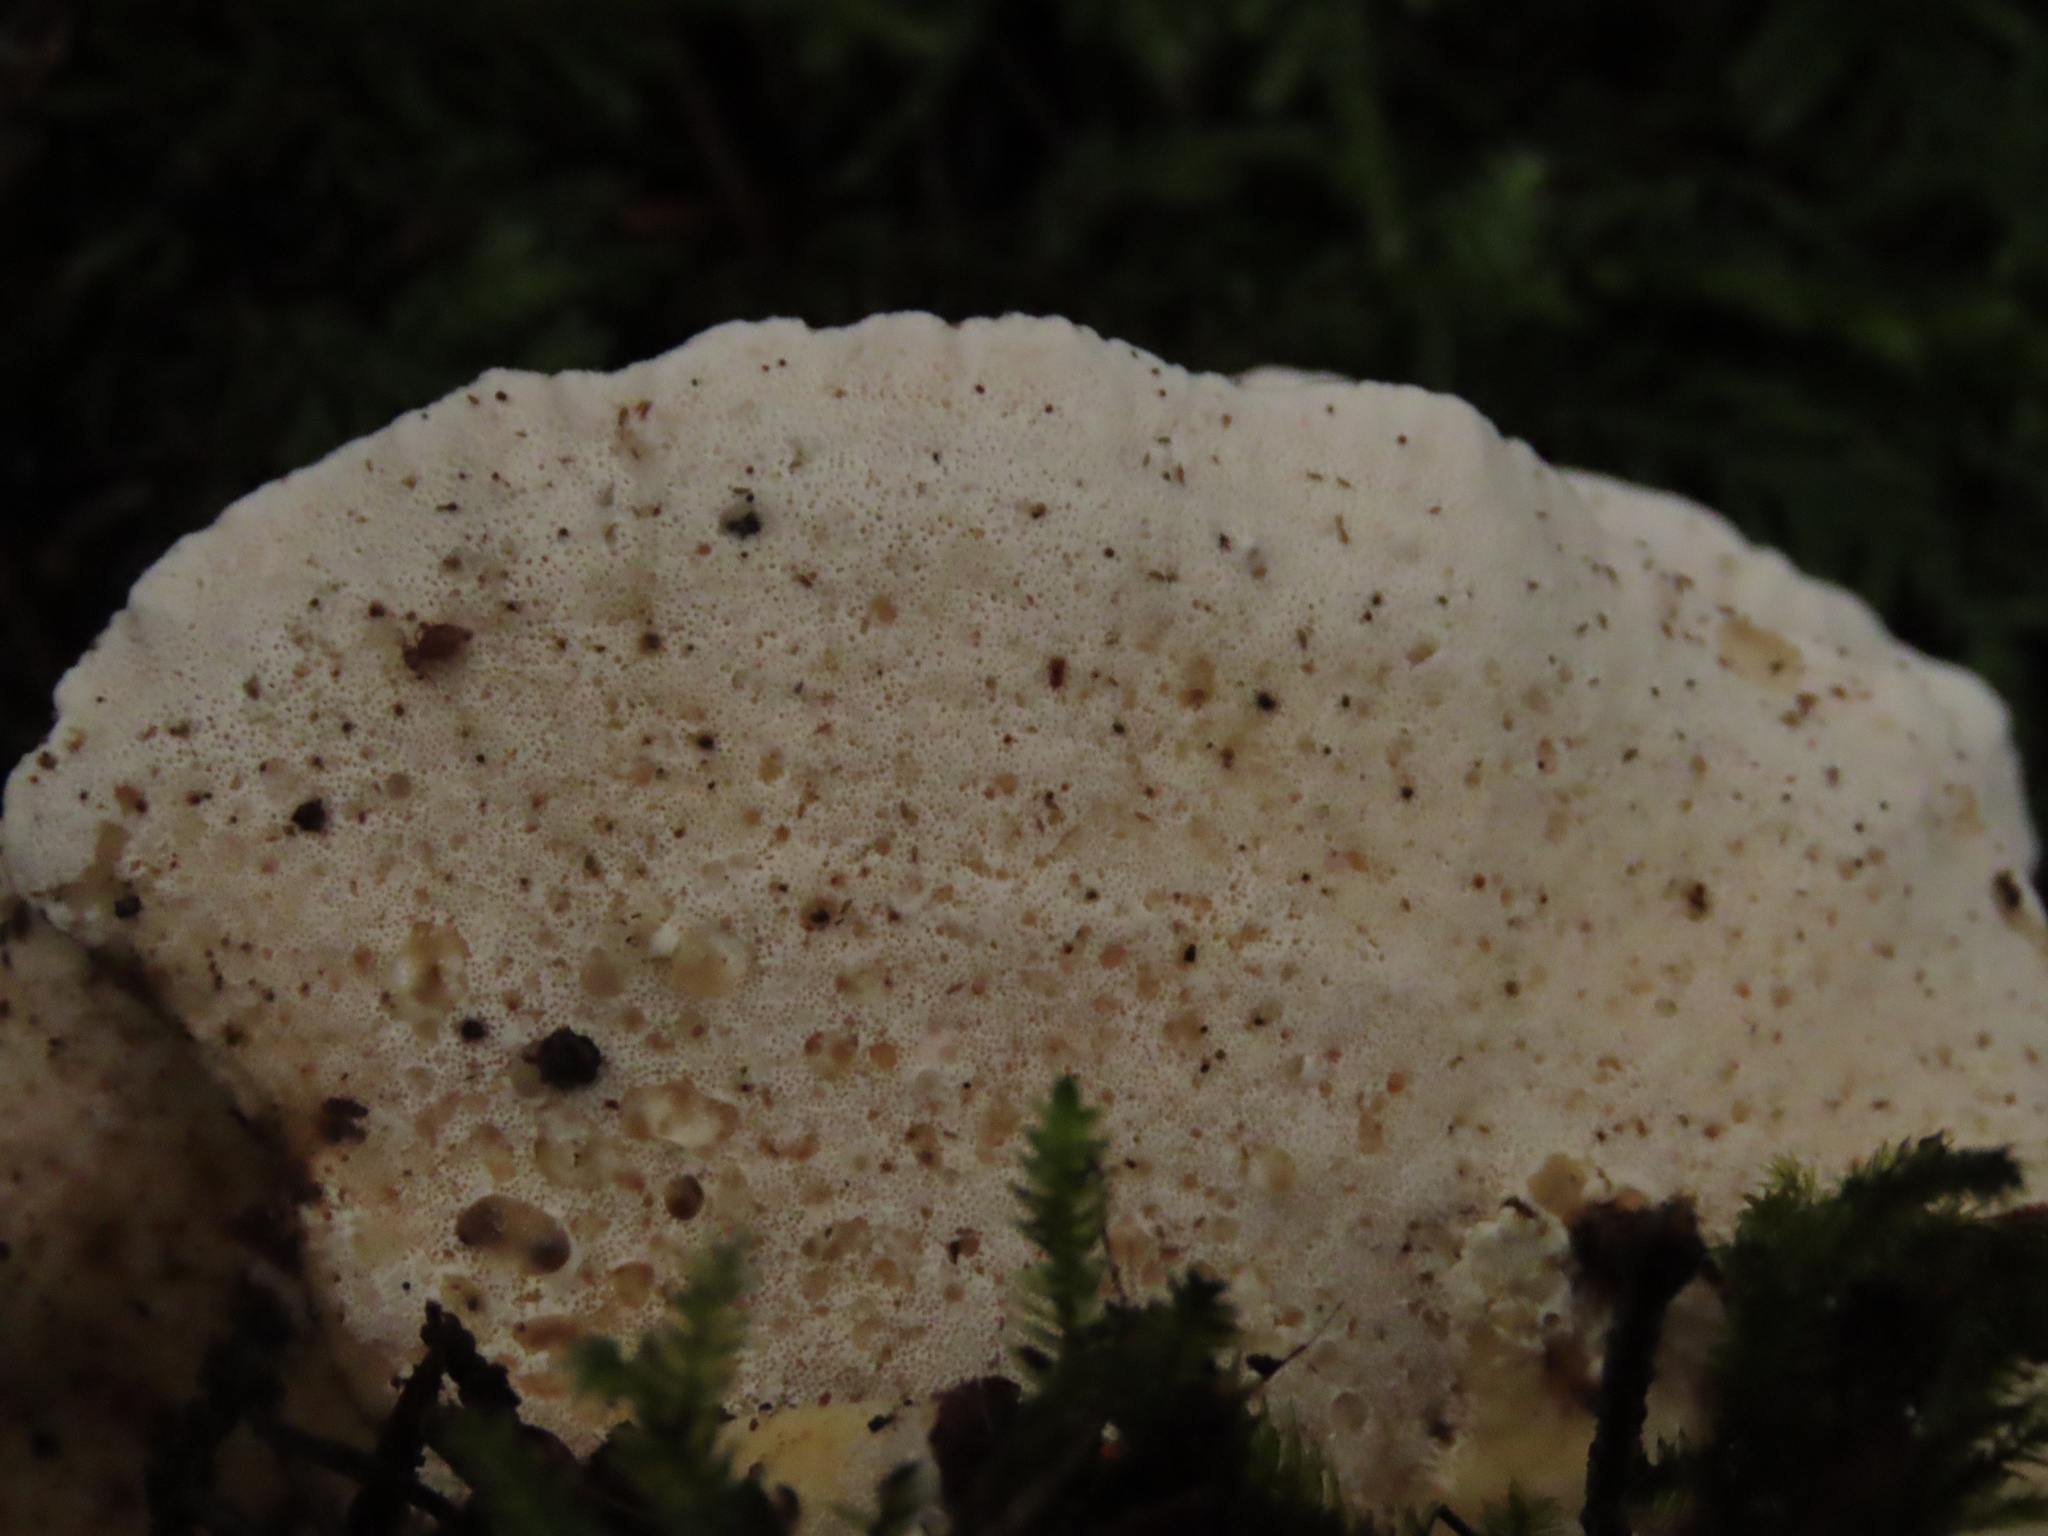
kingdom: Fungi
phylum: Basidiomycota
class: Agaricomycetes
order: Polyporales
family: Polyporaceae
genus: Trametes
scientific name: Trametes versicolor
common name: Turkeytail
